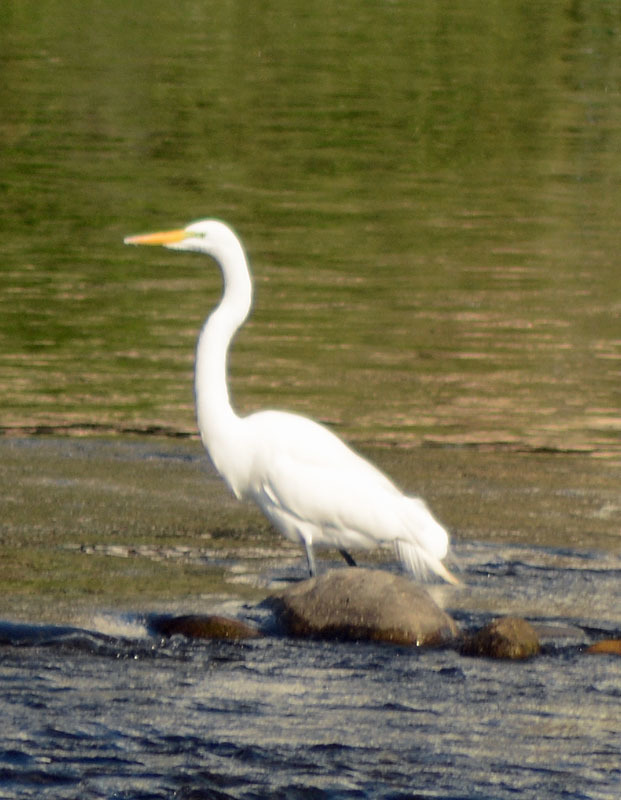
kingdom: Animalia
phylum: Chordata
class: Aves
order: Pelecaniformes
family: Ardeidae
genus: Ardea
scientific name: Ardea alba
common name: Great egret
